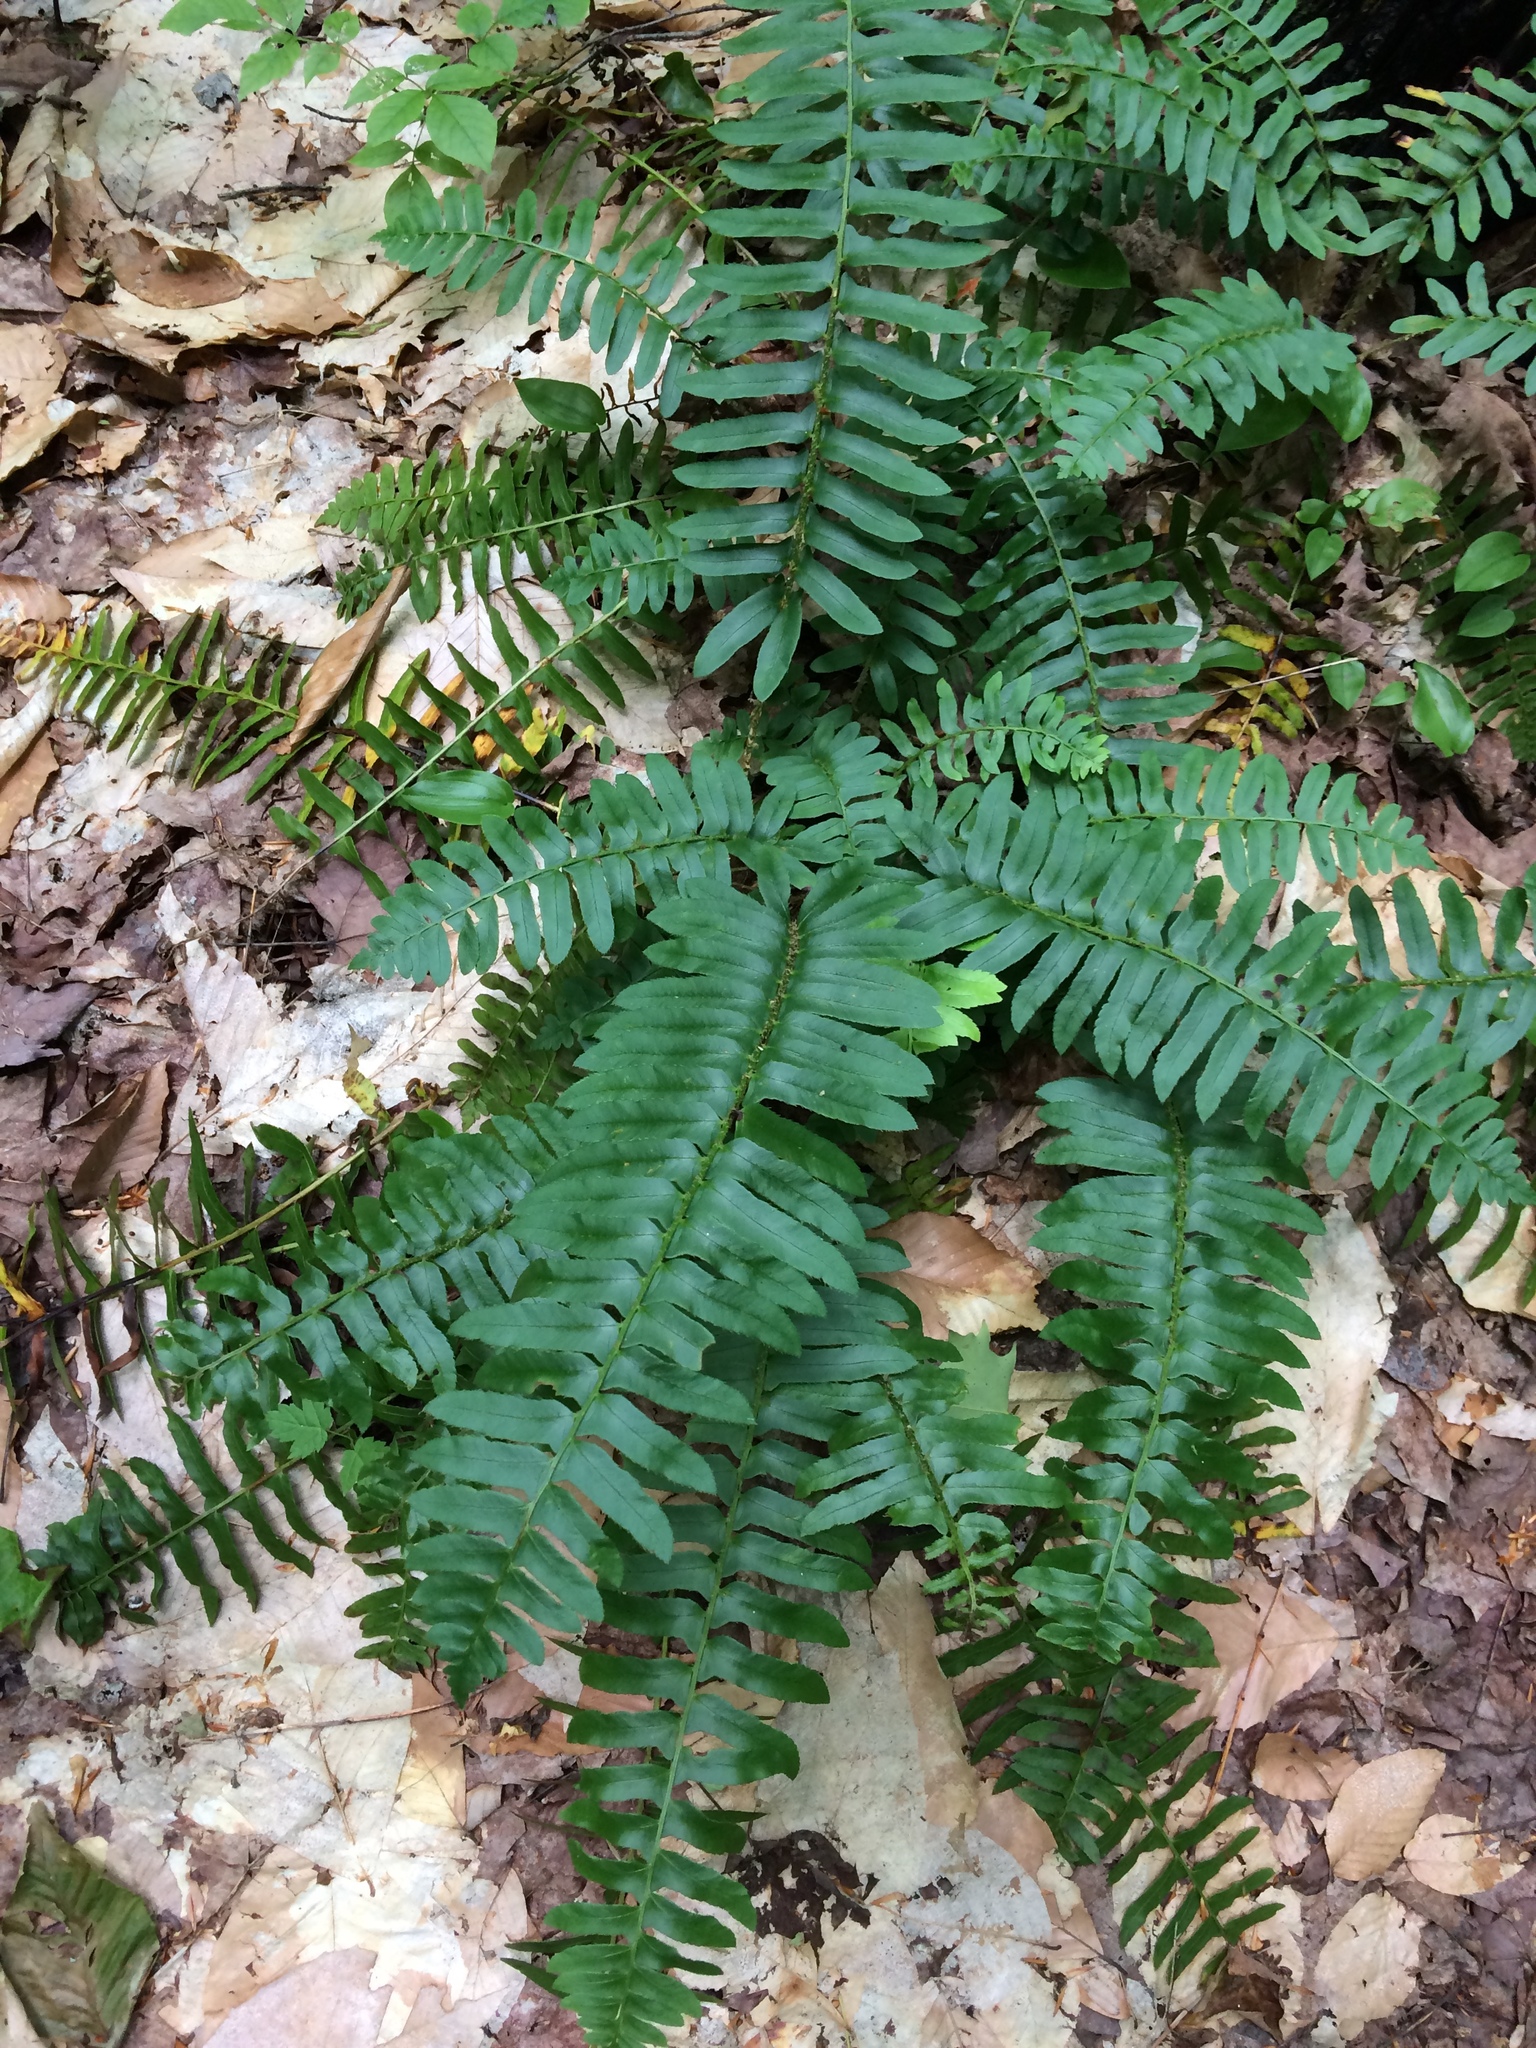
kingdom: Plantae
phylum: Tracheophyta
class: Polypodiopsida
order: Polypodiales
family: Dryopteridaceae
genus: Polystichum
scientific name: Polystichum acrostichoides
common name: Christmas fern
